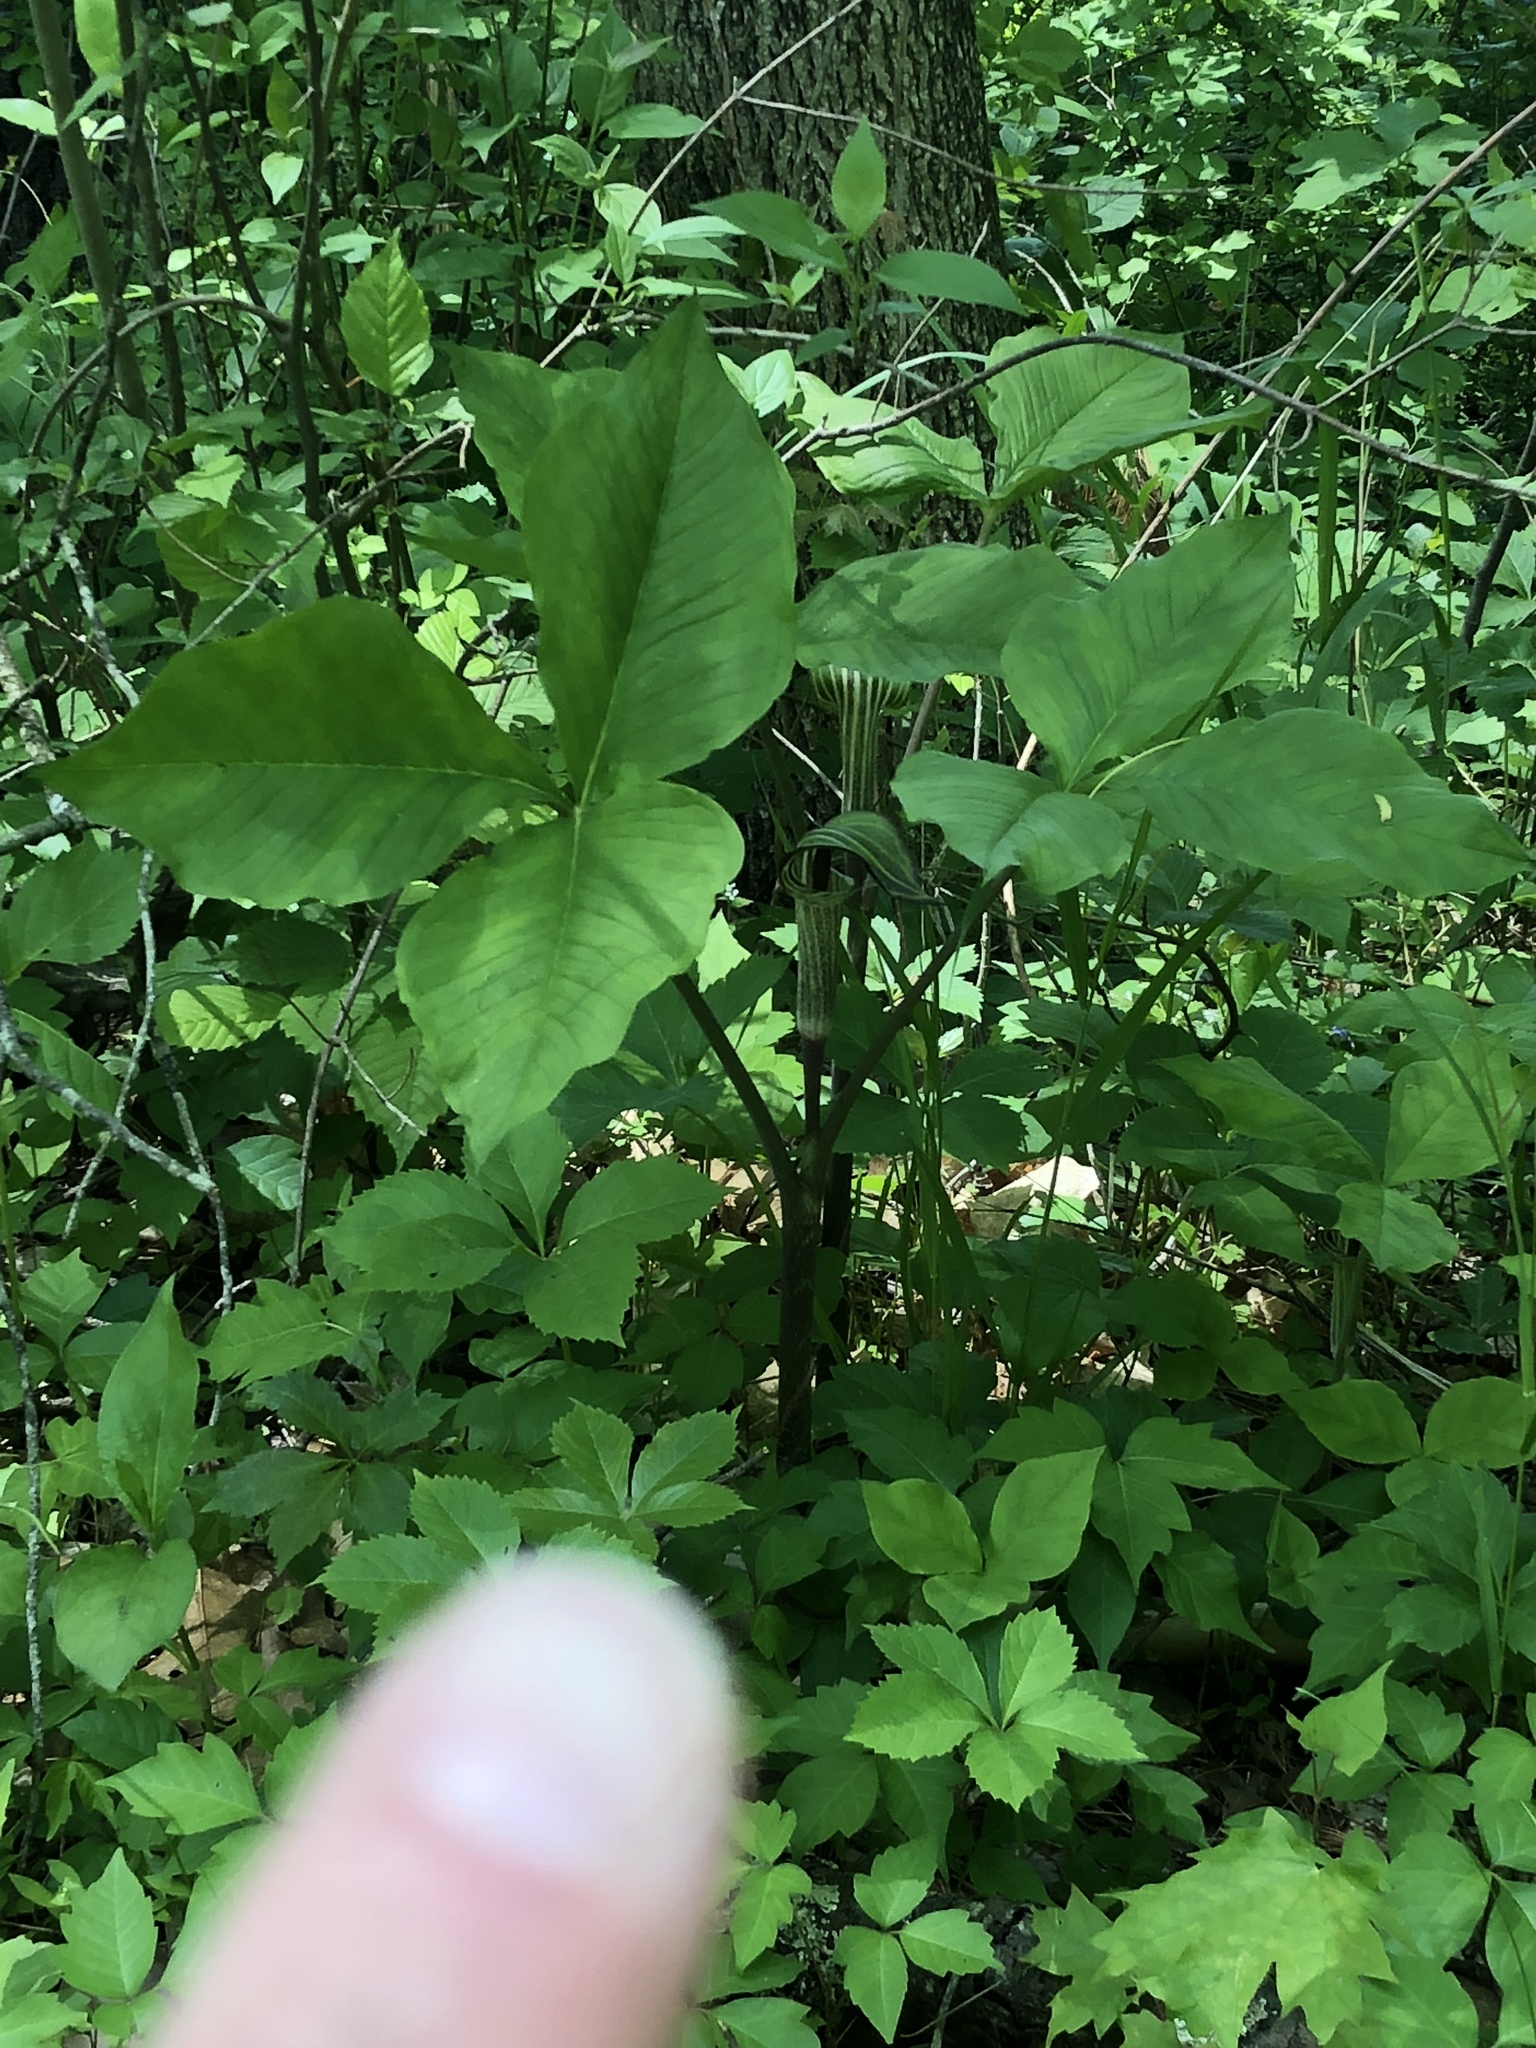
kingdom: Plantae
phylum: Tracheophyta
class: Liliopsida
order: Alismatales
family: Araceae
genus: Arisaema
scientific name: Arisaema triphyllum
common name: Jack-in-the-pulpit
